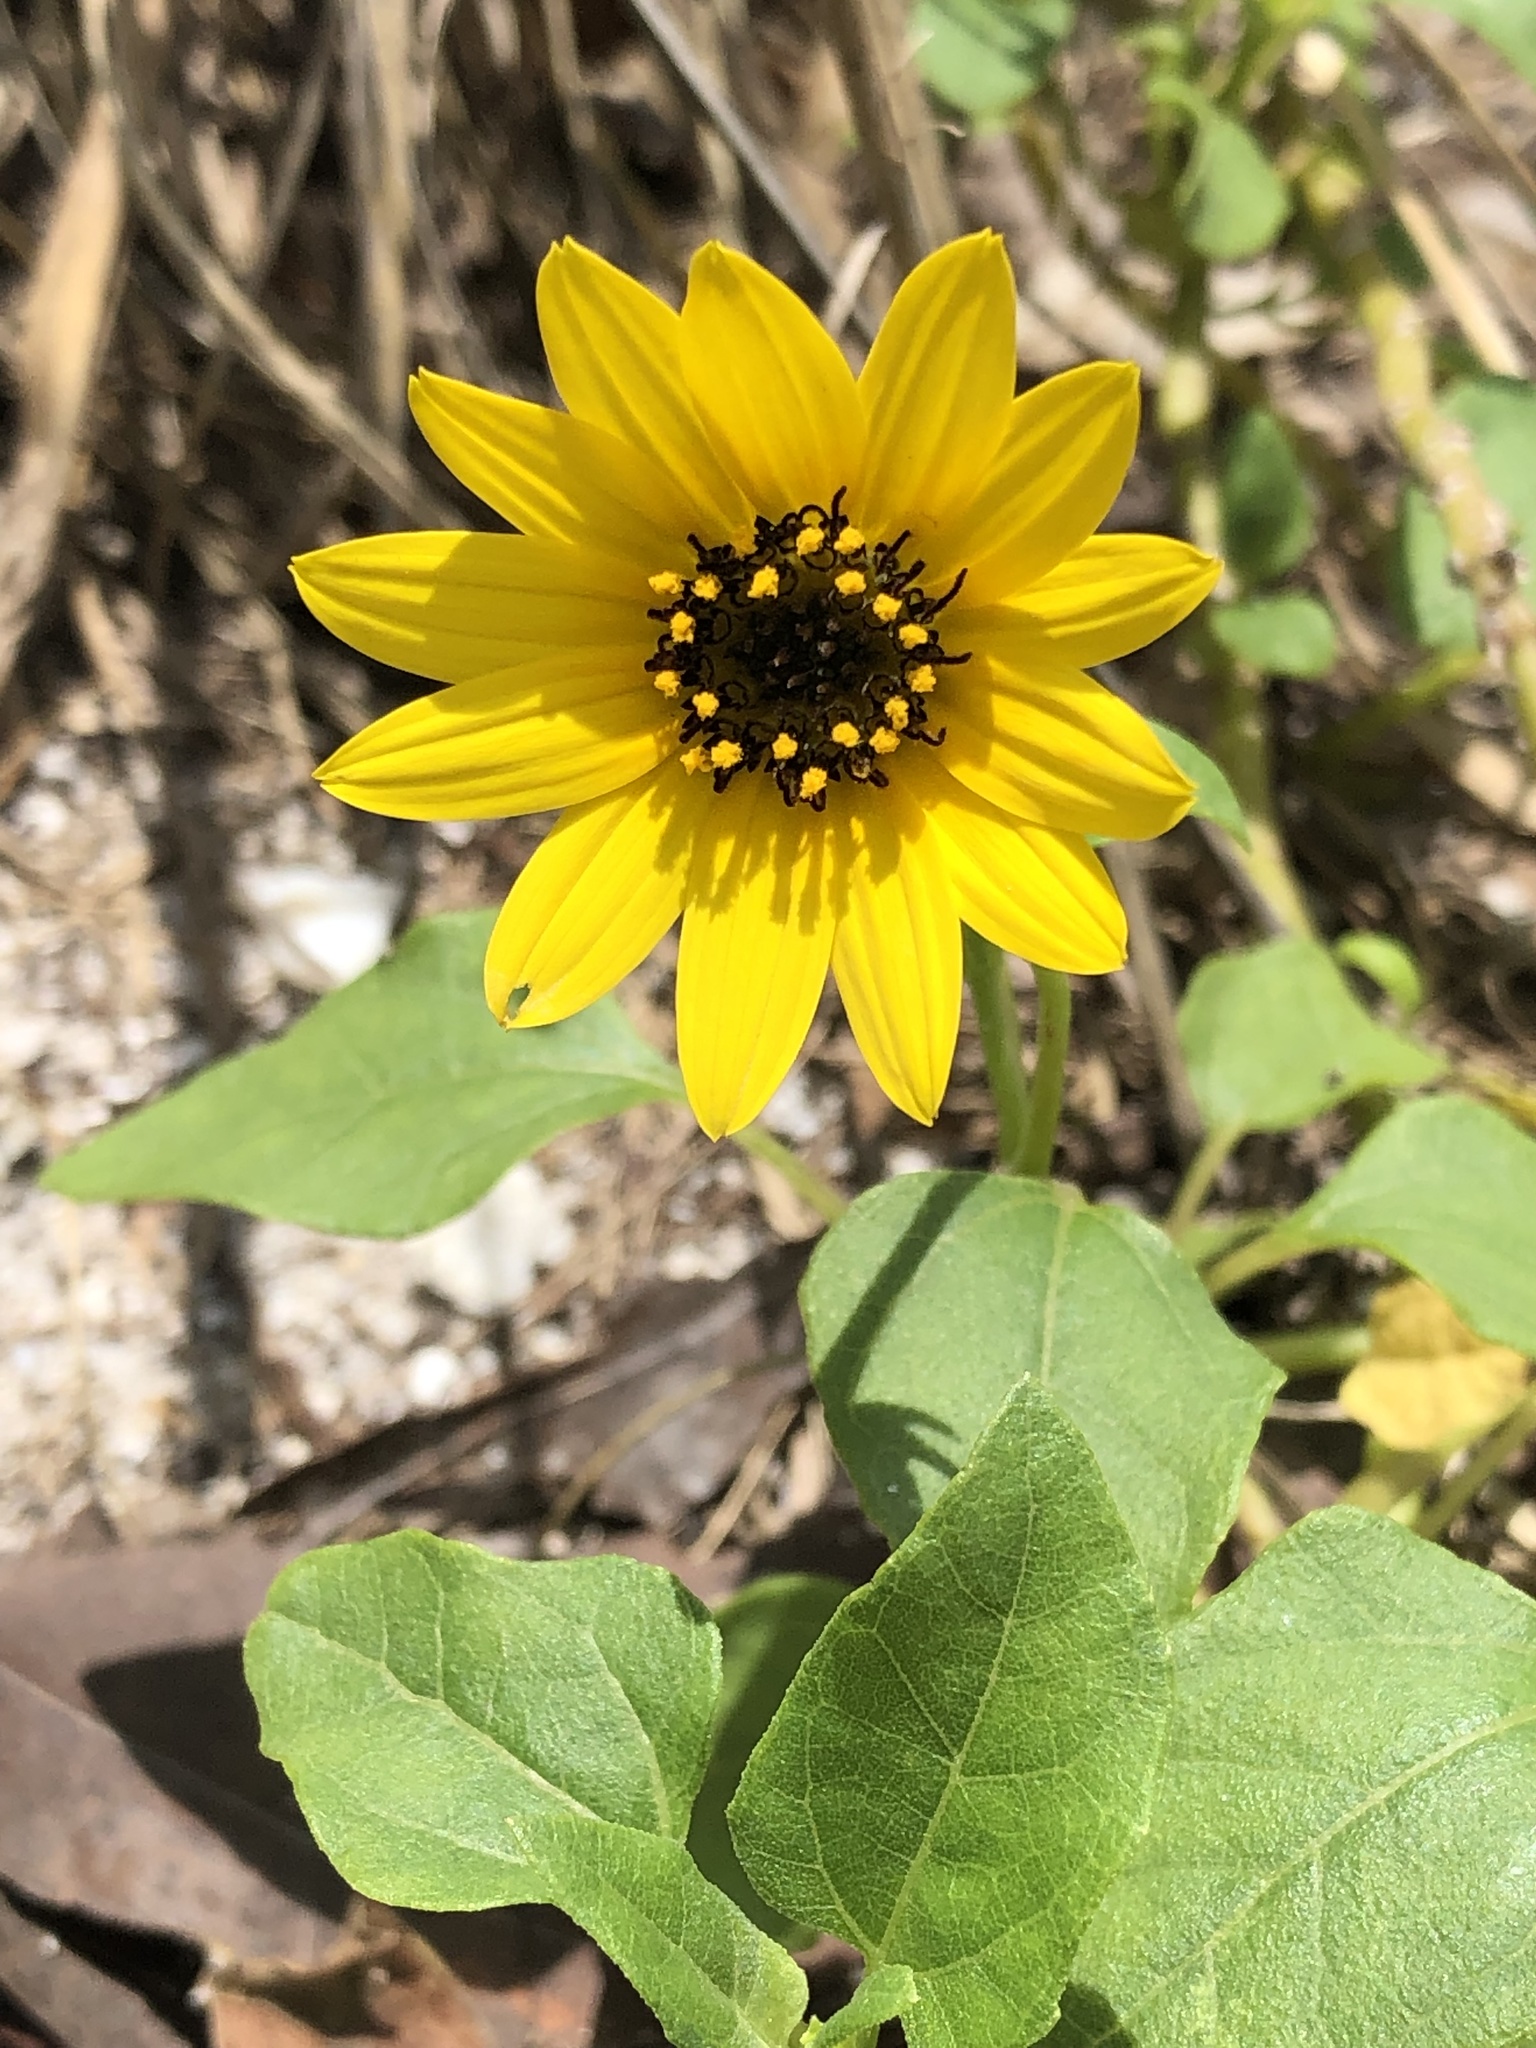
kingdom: Plantae
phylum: Tracheophyta
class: Magnoliopsida
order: Asterales
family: Asteraceae
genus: Helianthus
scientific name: Helianthus debilis
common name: Weak sunflower
